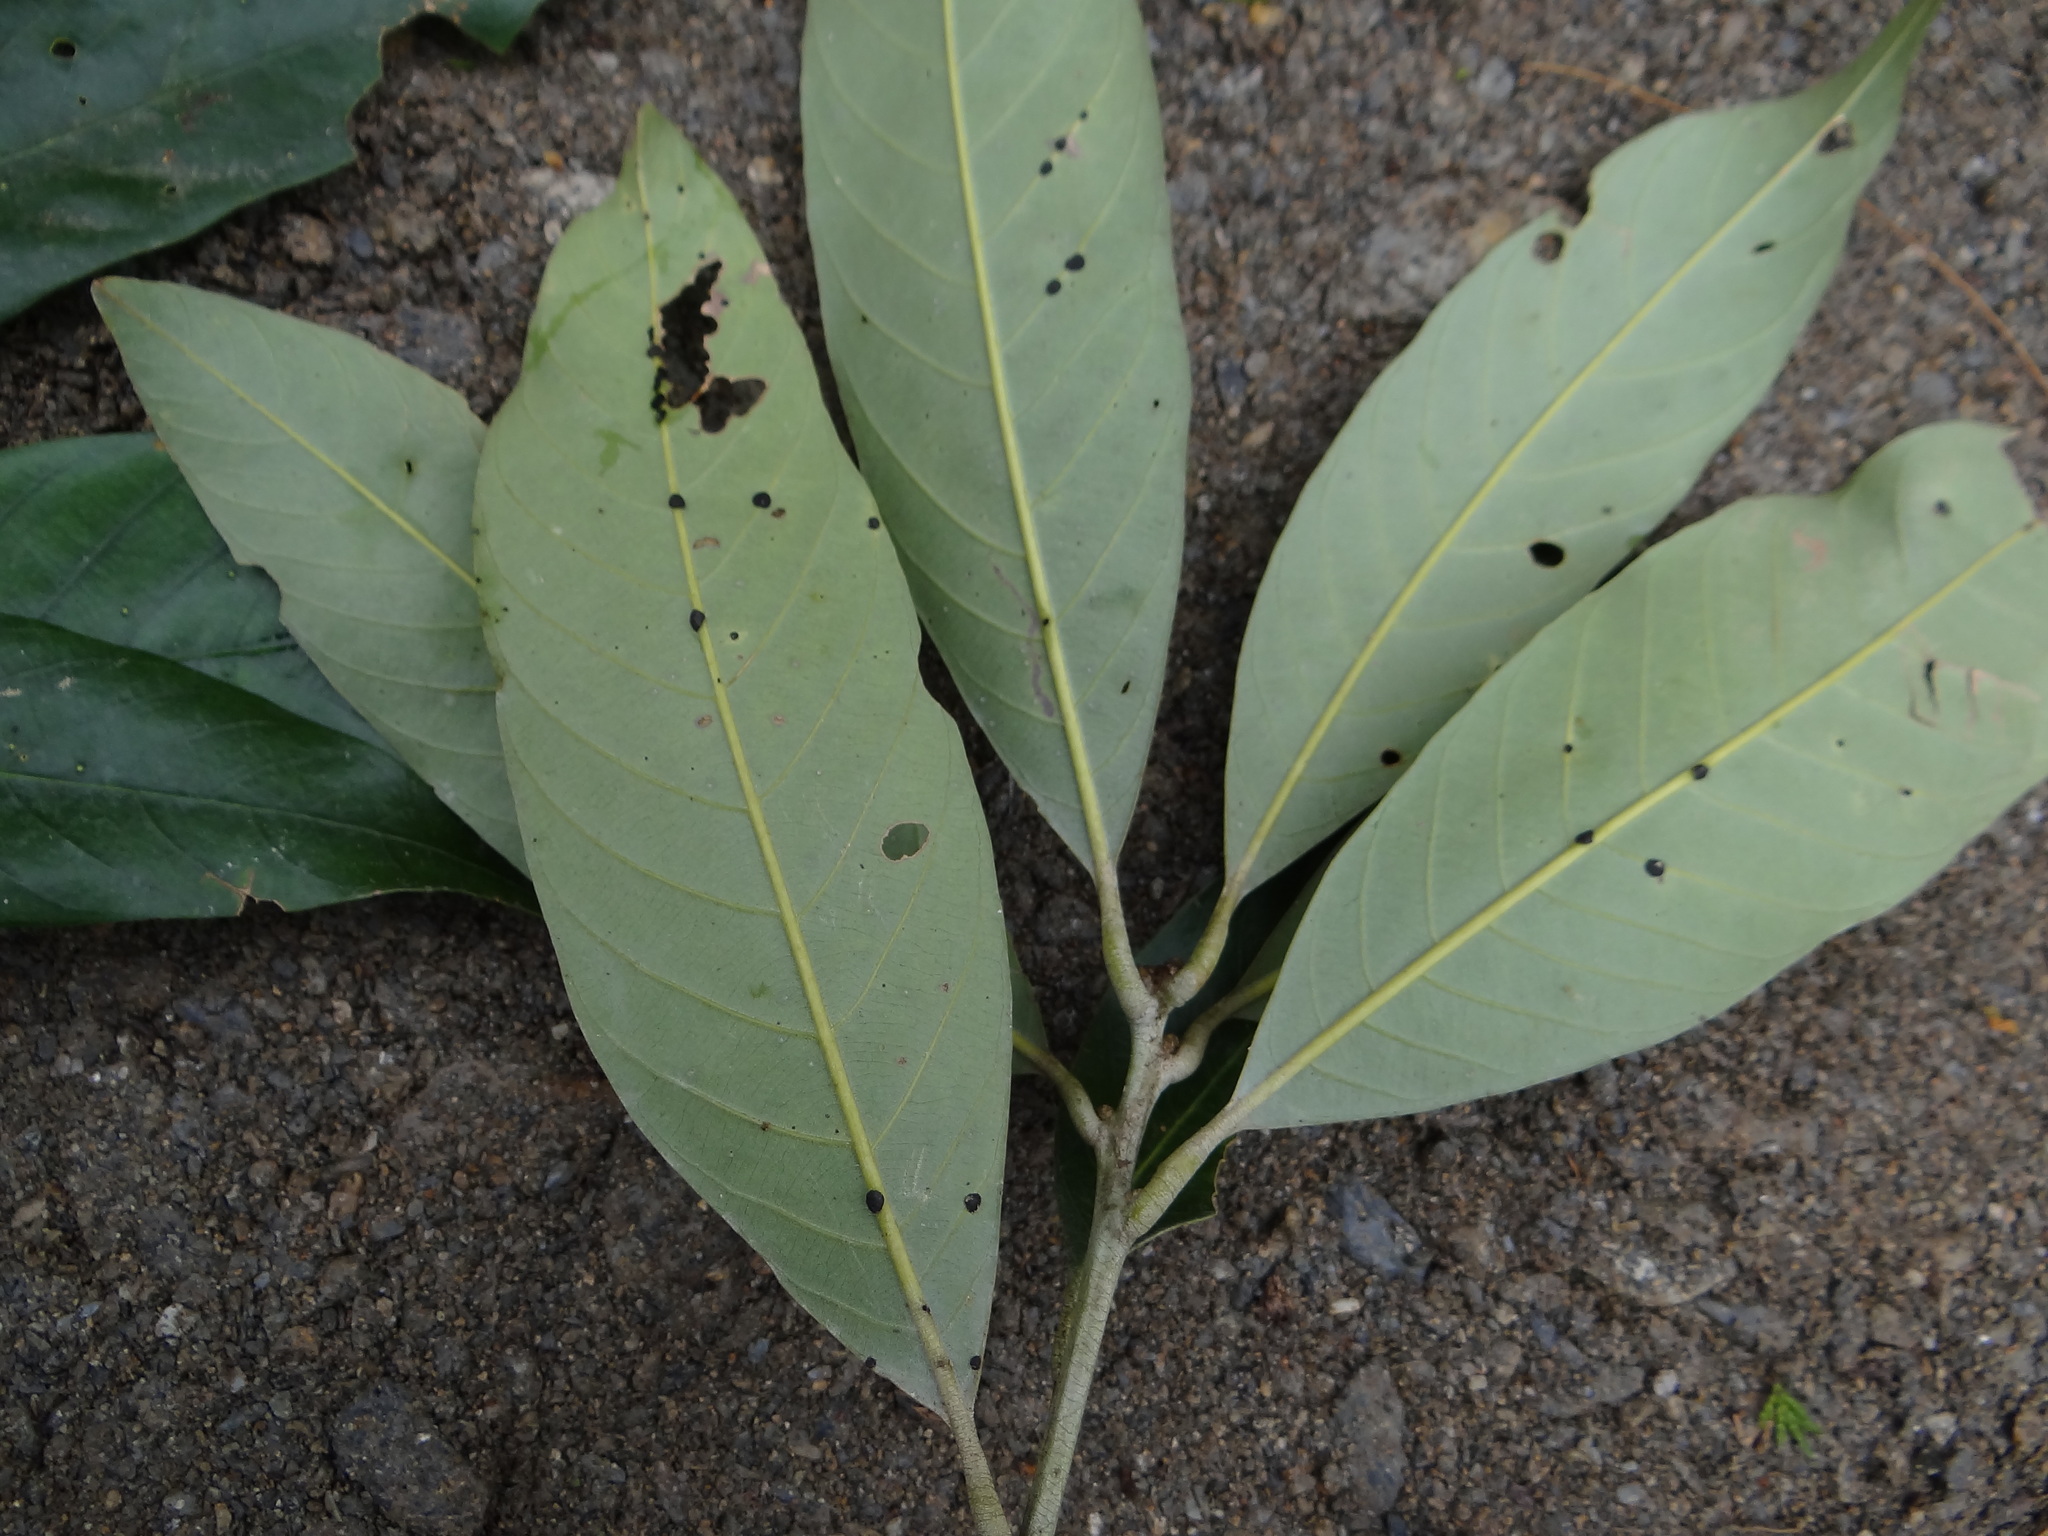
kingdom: Plantae
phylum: Tracheophyta
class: Magnoliopsida
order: Fagales
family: Fagaceae
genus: Lithocarpus
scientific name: Lithocarpus lepidocarpus
